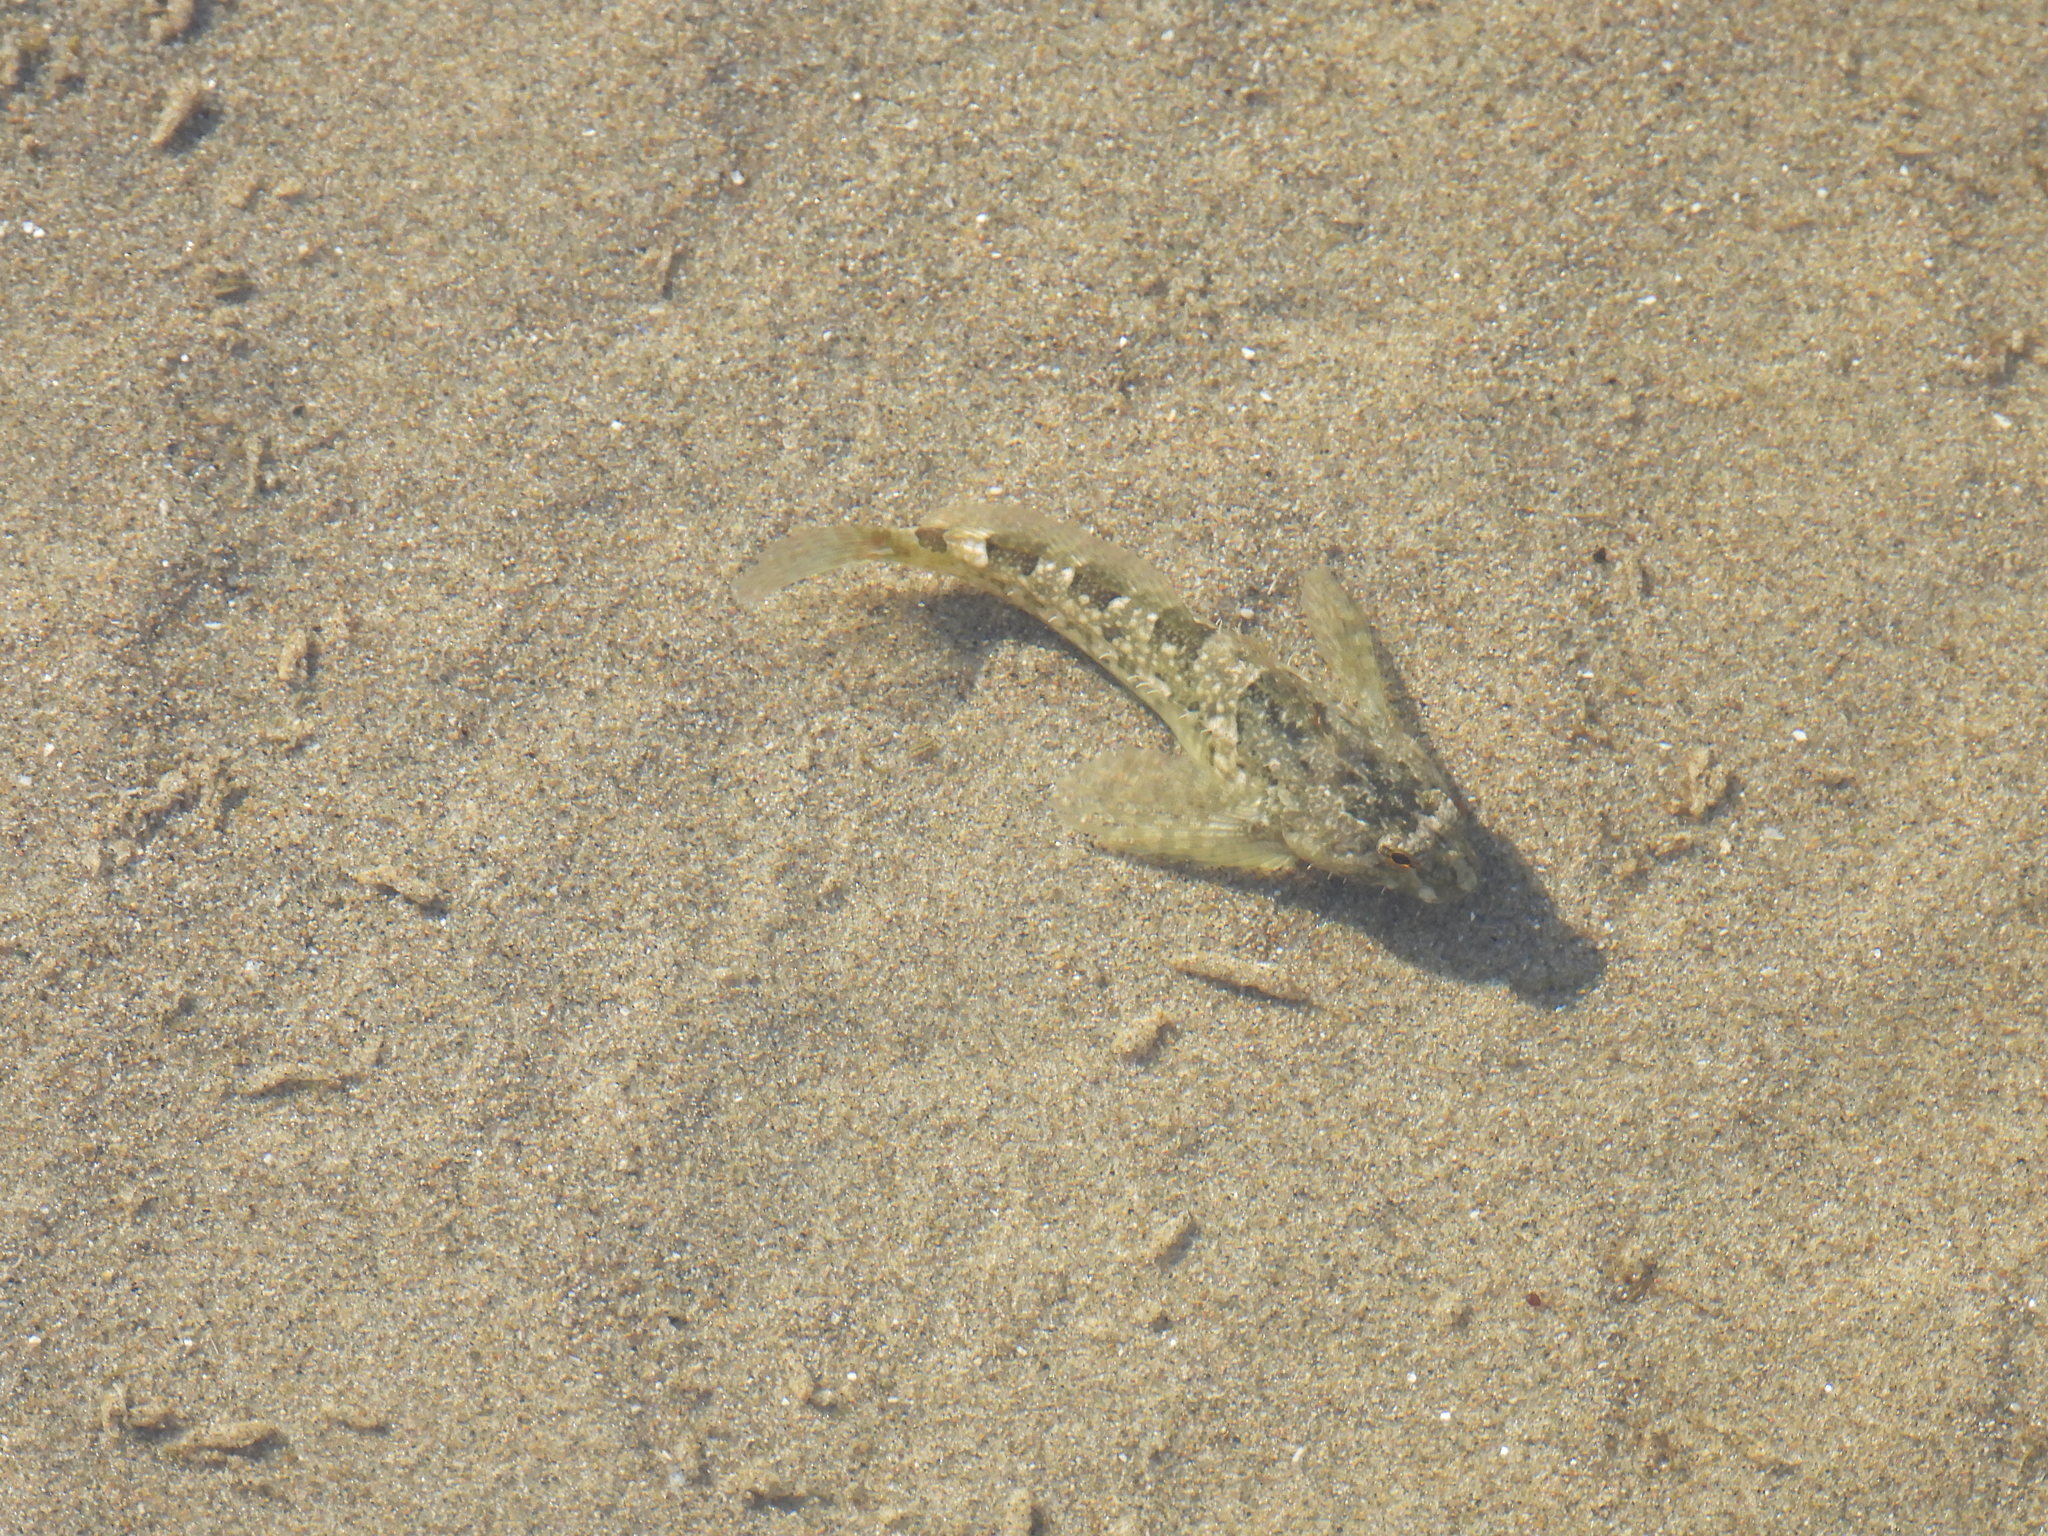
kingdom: Animalia
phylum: Chordata
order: Scorpaeniformes
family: Cottidae
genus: Oligocottus
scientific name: Oligocottus maculosus
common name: Tidepool sculpin
